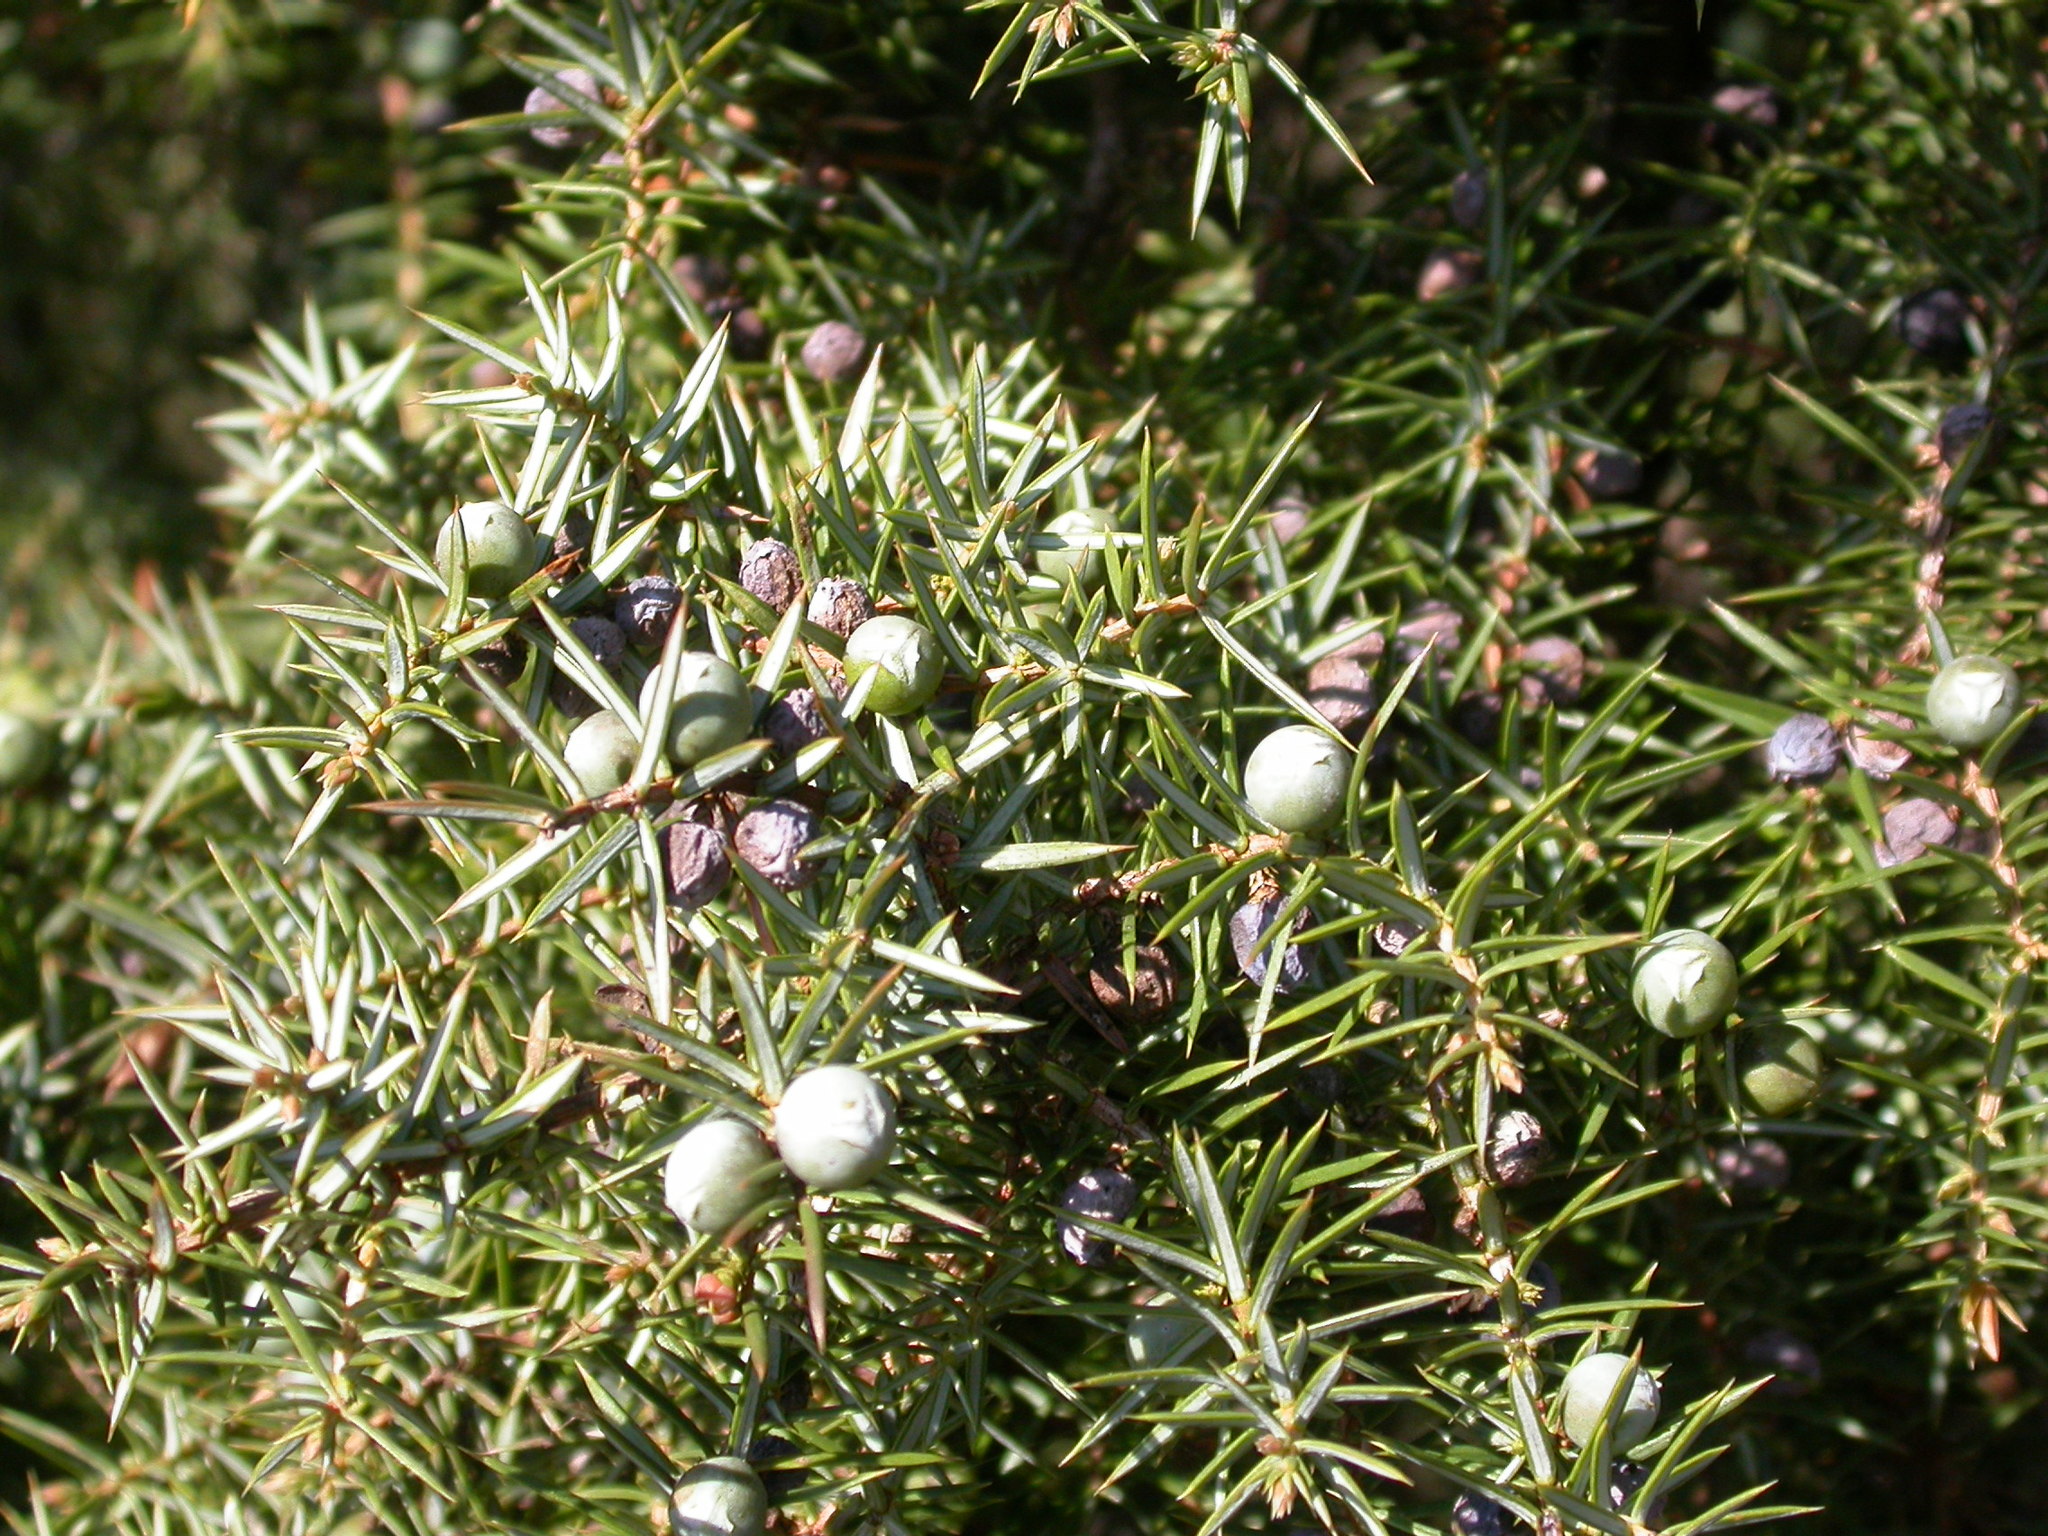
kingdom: Plantae
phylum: Tracheophyta
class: Pinopsida
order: Pinales
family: Cupressaceae
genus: Juniperus
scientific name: Juniperus communis
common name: Common juniper
